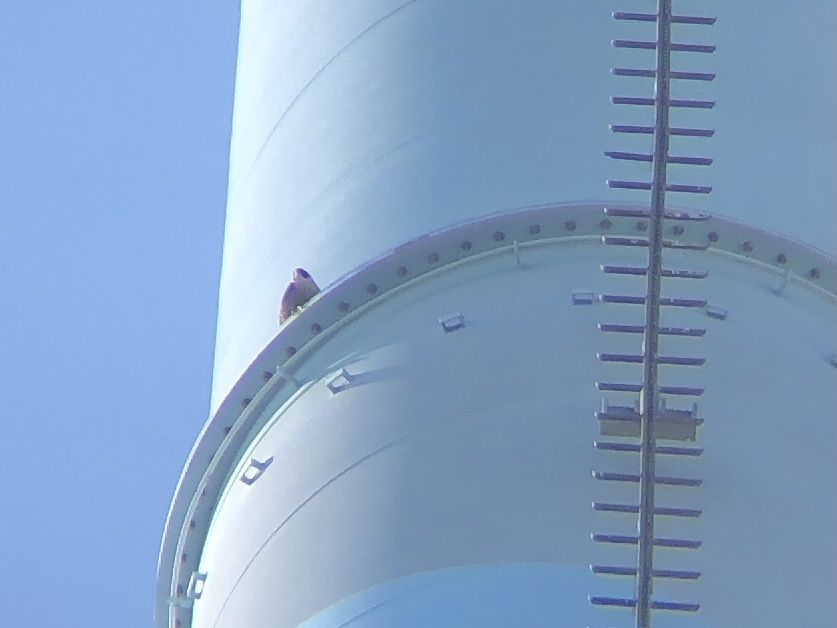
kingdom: Animalia
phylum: Chordata
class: Aves
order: Falconiformes
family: Falconidae
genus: Falco
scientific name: Falco peregrinus
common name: Peregrine falcon
